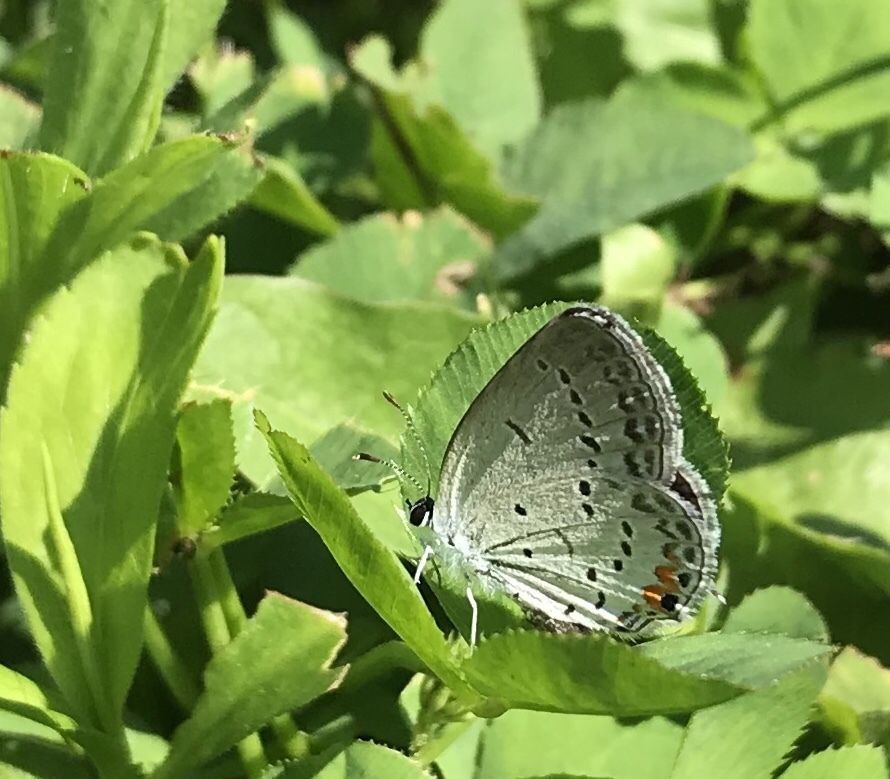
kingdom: Animalia
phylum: Arthropoda
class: Insecta
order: Lepidoptera
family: Lycaenidae
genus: Elkalyce
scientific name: Elkalyce comyntas
